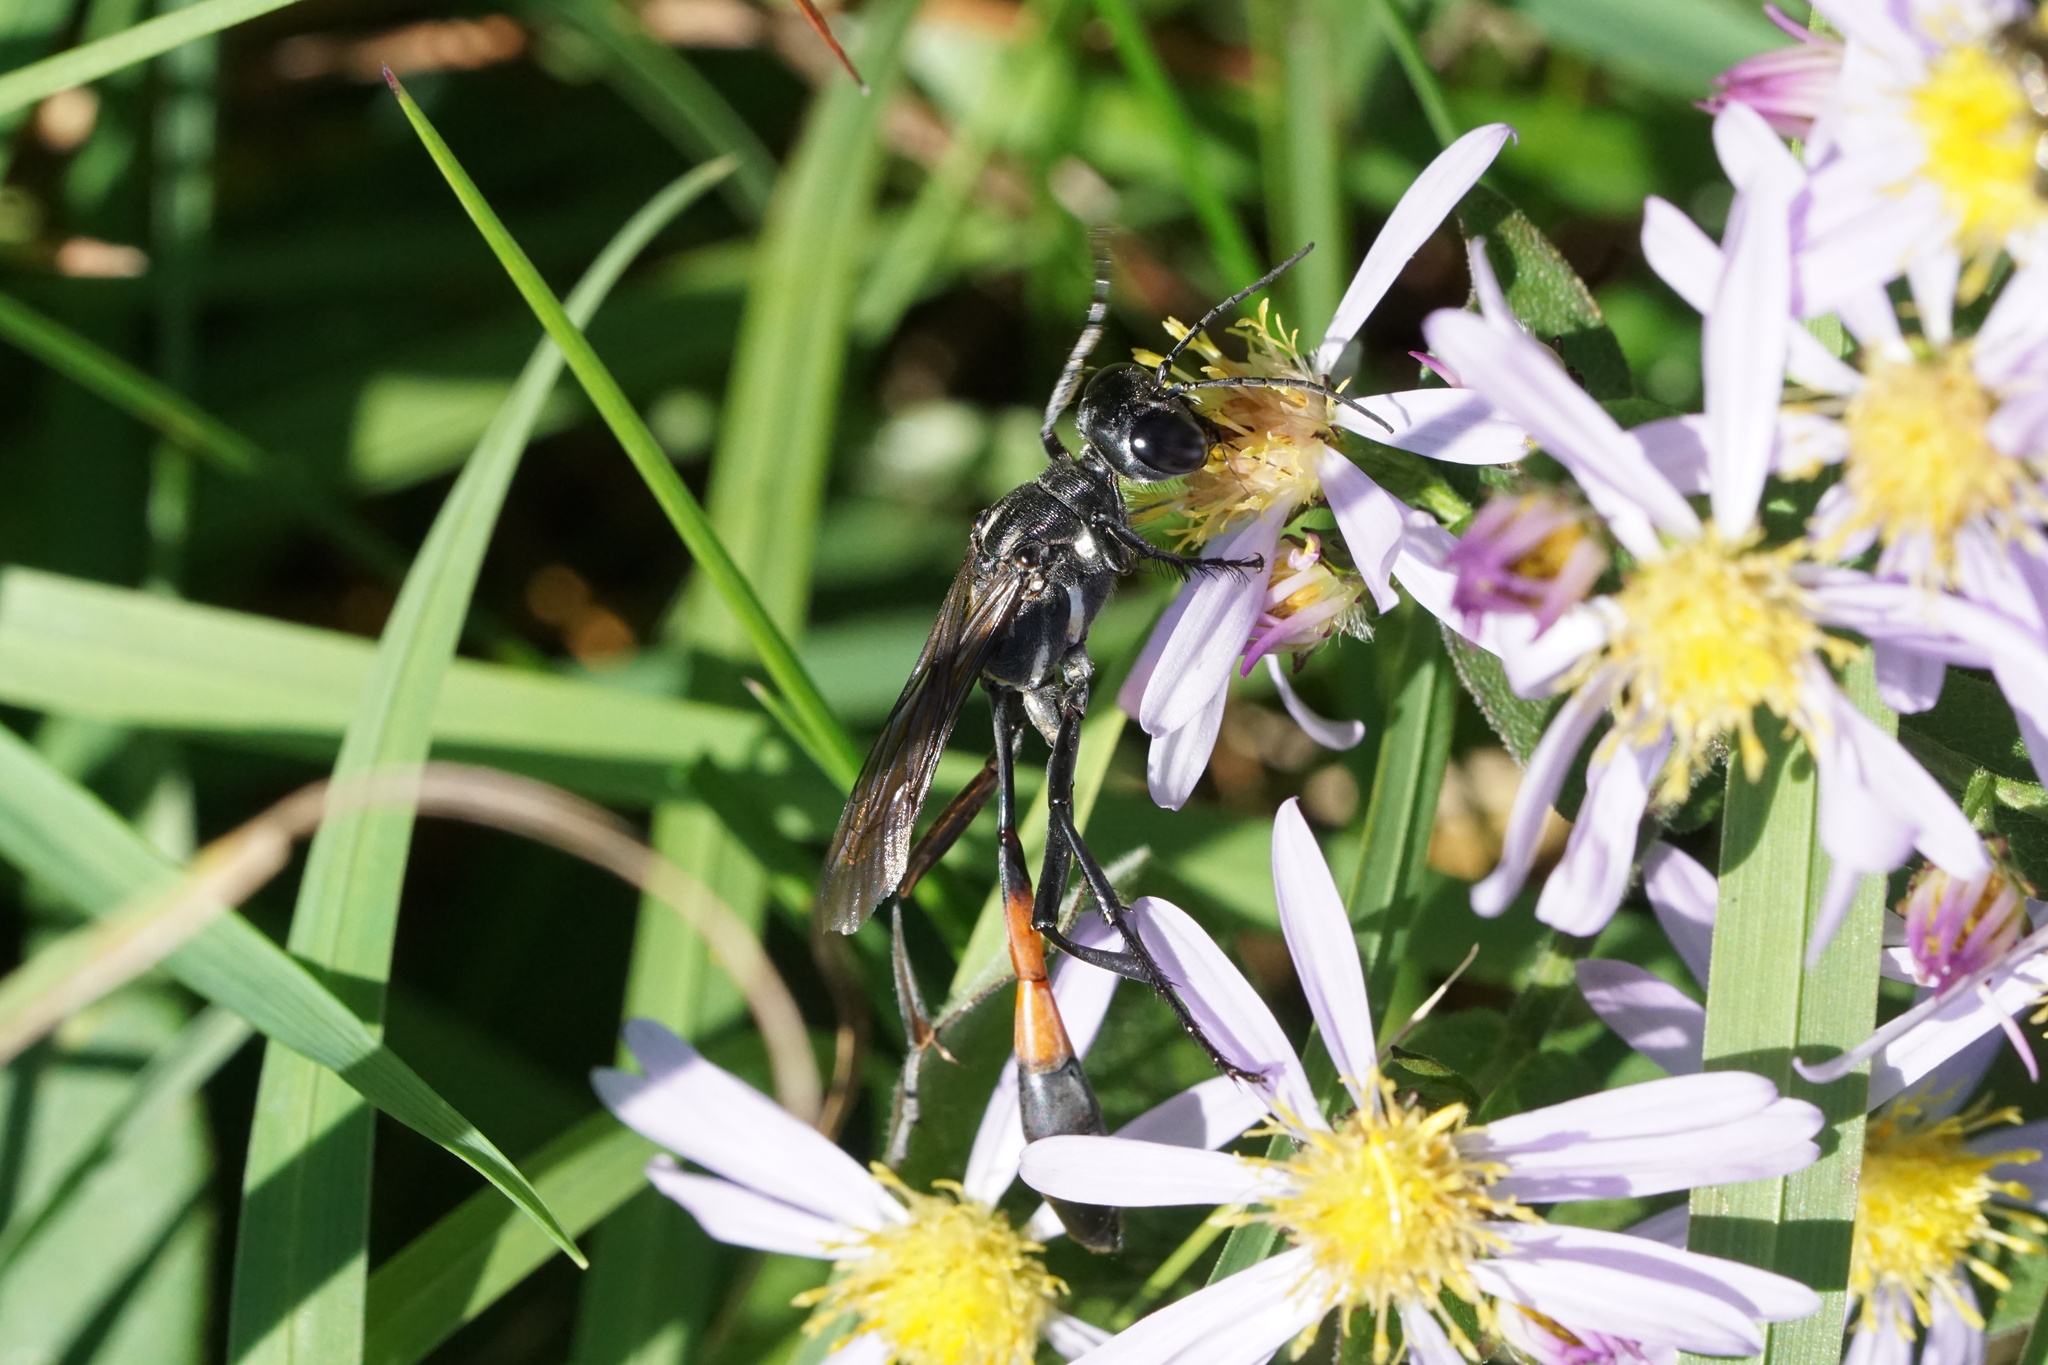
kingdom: Animalia
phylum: Arthropoda
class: Insecta
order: Hymenoptera
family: Sphecidae
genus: Ammophila
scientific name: Ammophila procera
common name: Common thread-waisted wasp
